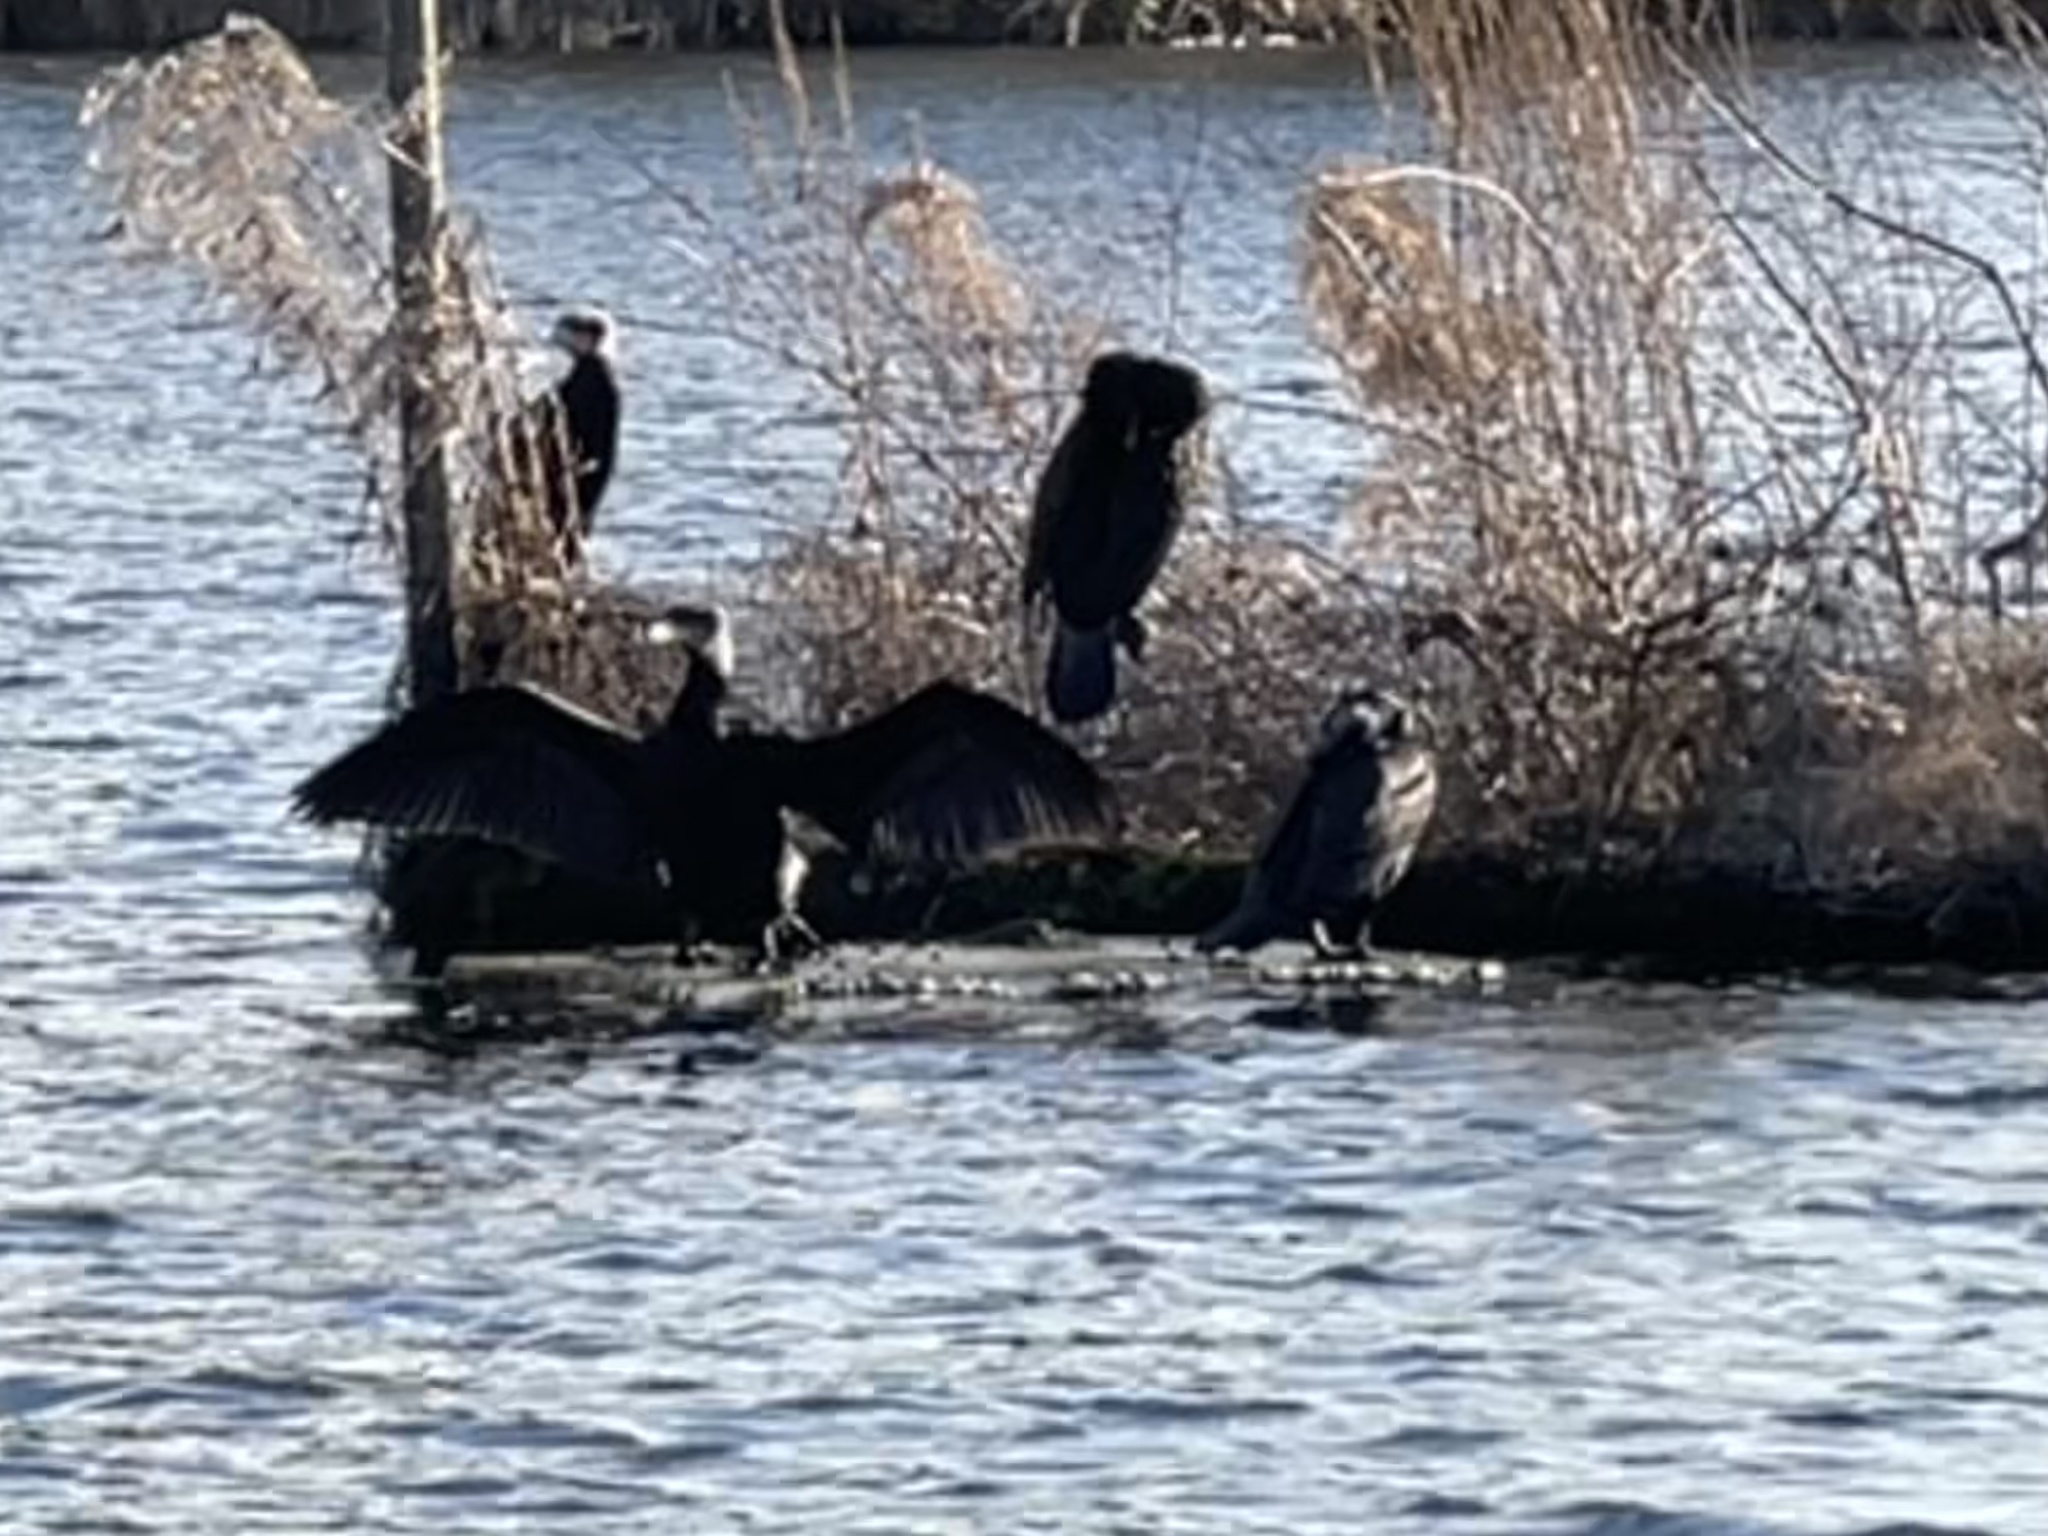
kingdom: Animalia
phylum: Chordata
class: Aves
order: Suliformes
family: Phalacrocoracidae
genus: Phalacrocorax
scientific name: Phalacrocorax carbo
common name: Great cormorant
